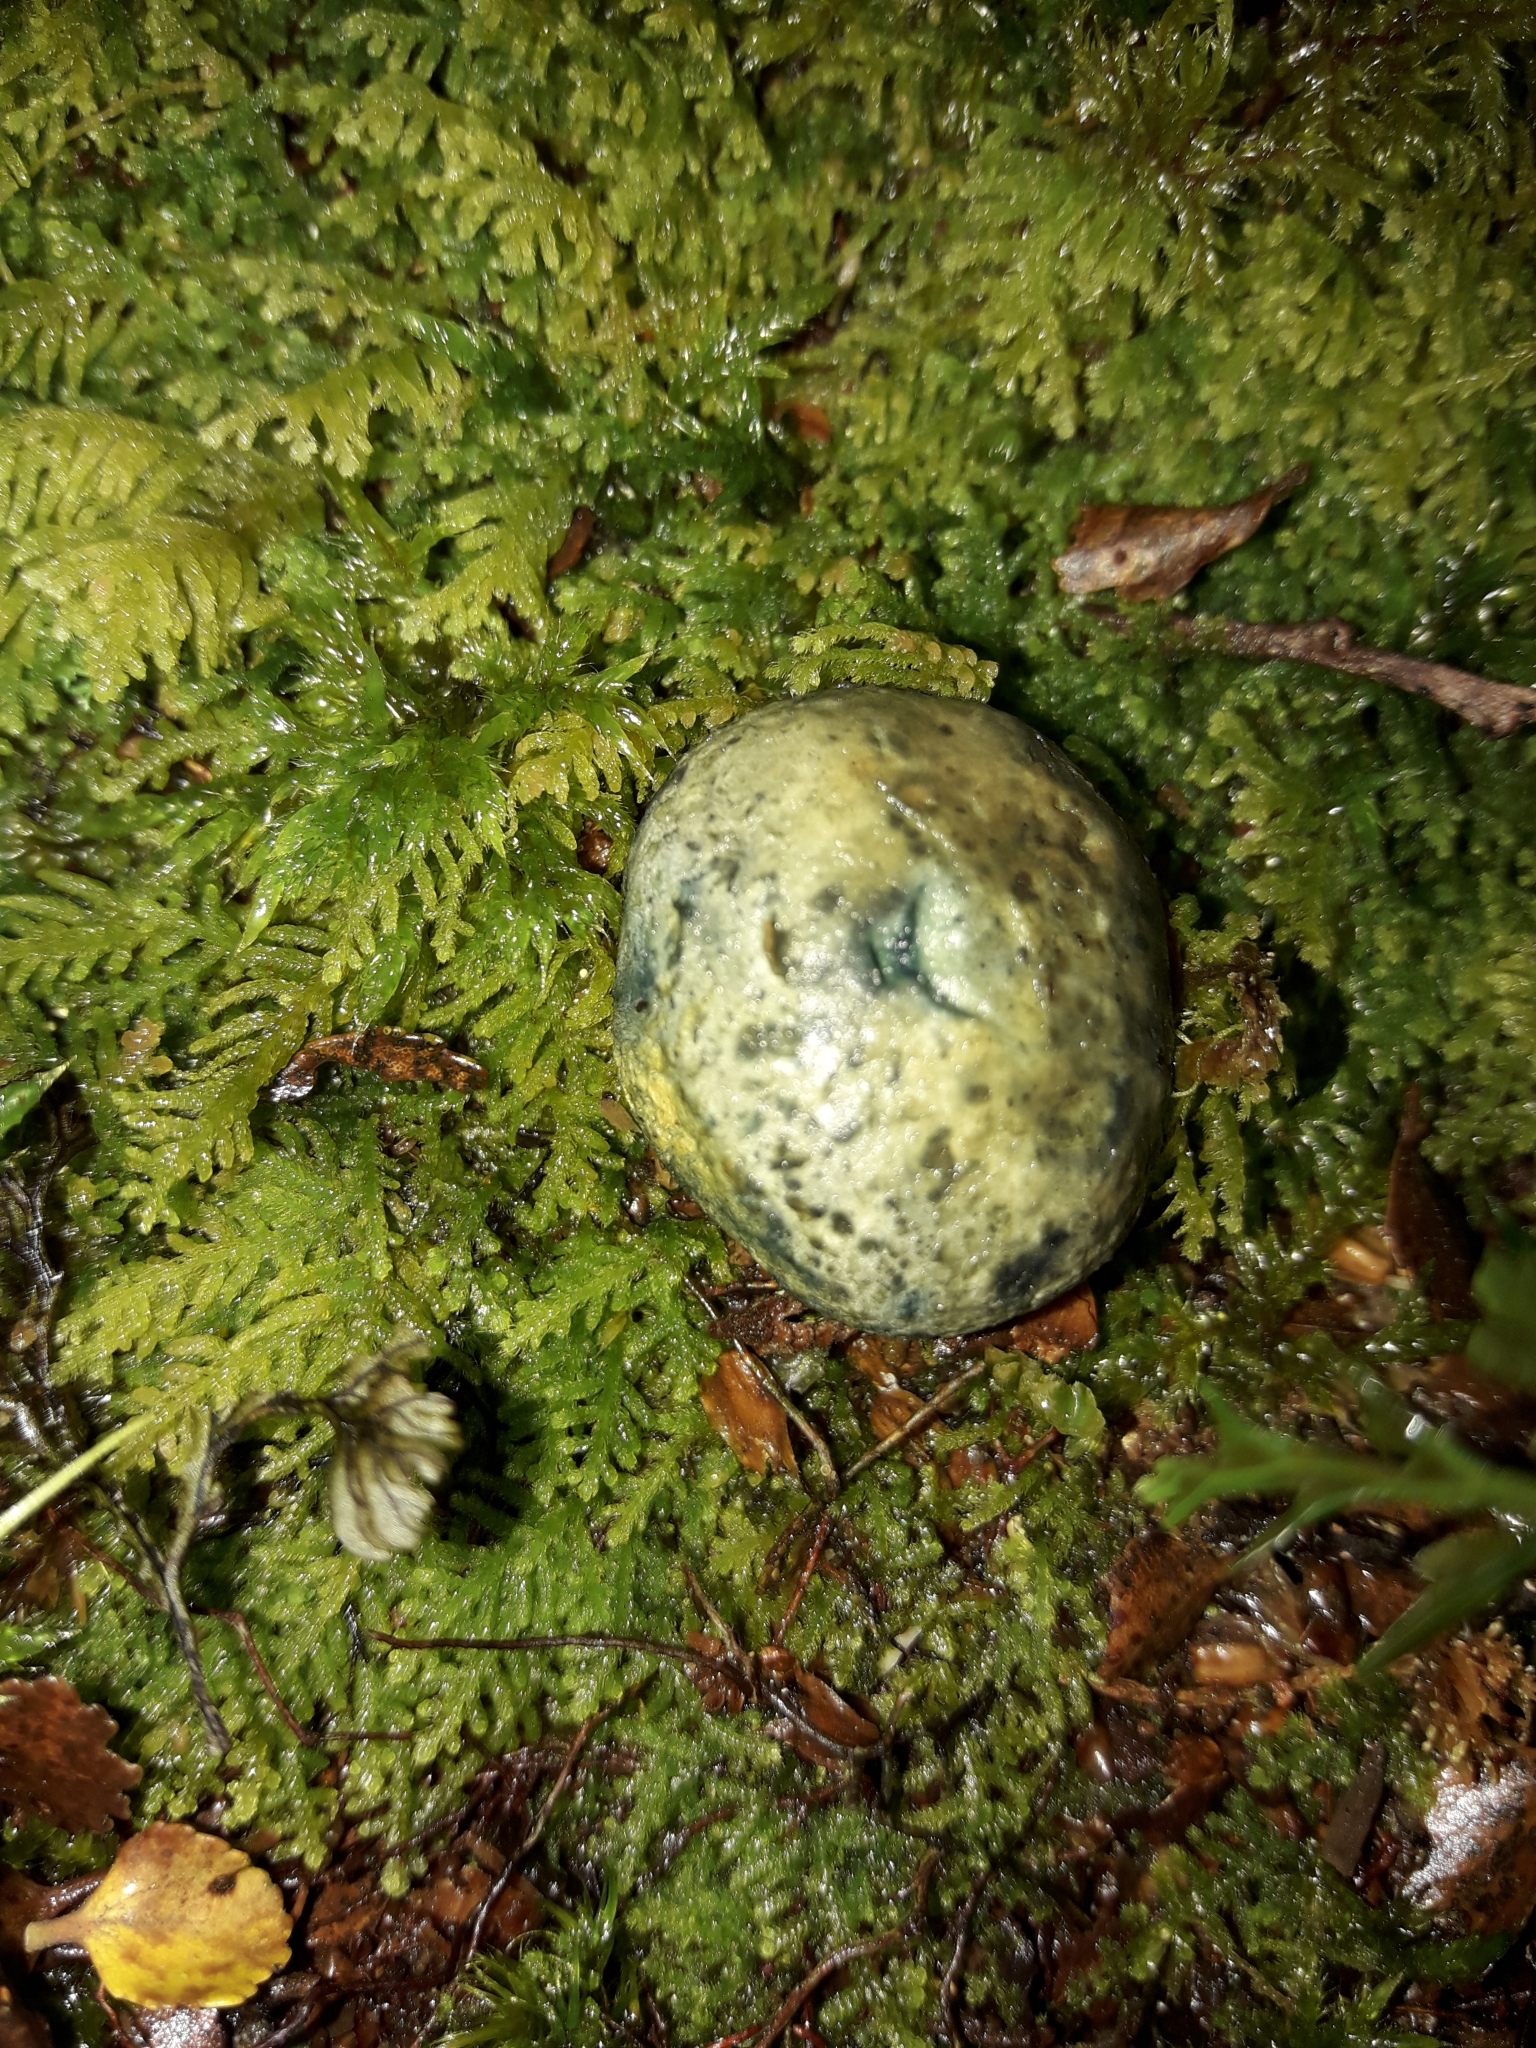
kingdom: Fungi
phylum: Basidiomycota
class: Agaricomycetes
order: Boletales
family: Boletaceae
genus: Leccinum
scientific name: Leccinum pachyderme
